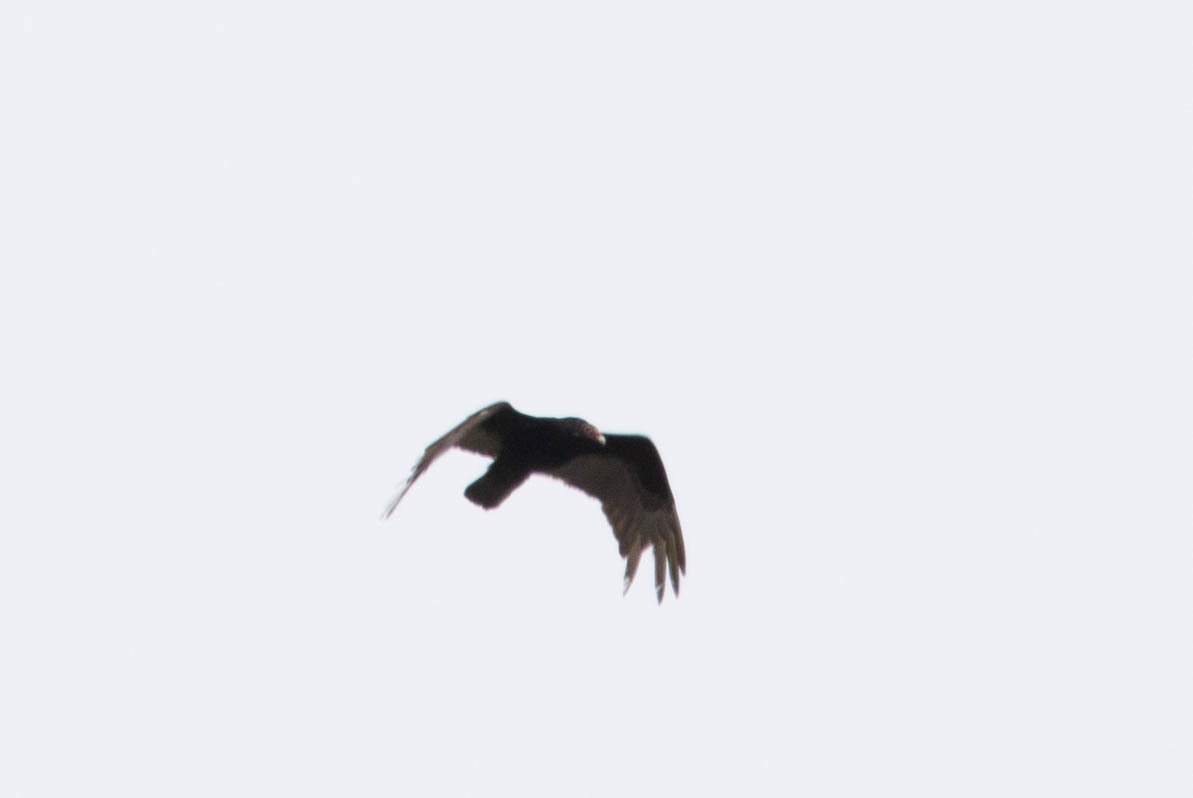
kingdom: Animalia
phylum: Chordata
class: Aves
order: Accipitriformes
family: Cathartidae
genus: Cathartes
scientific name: Cathartes aura
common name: Turkey vulture
